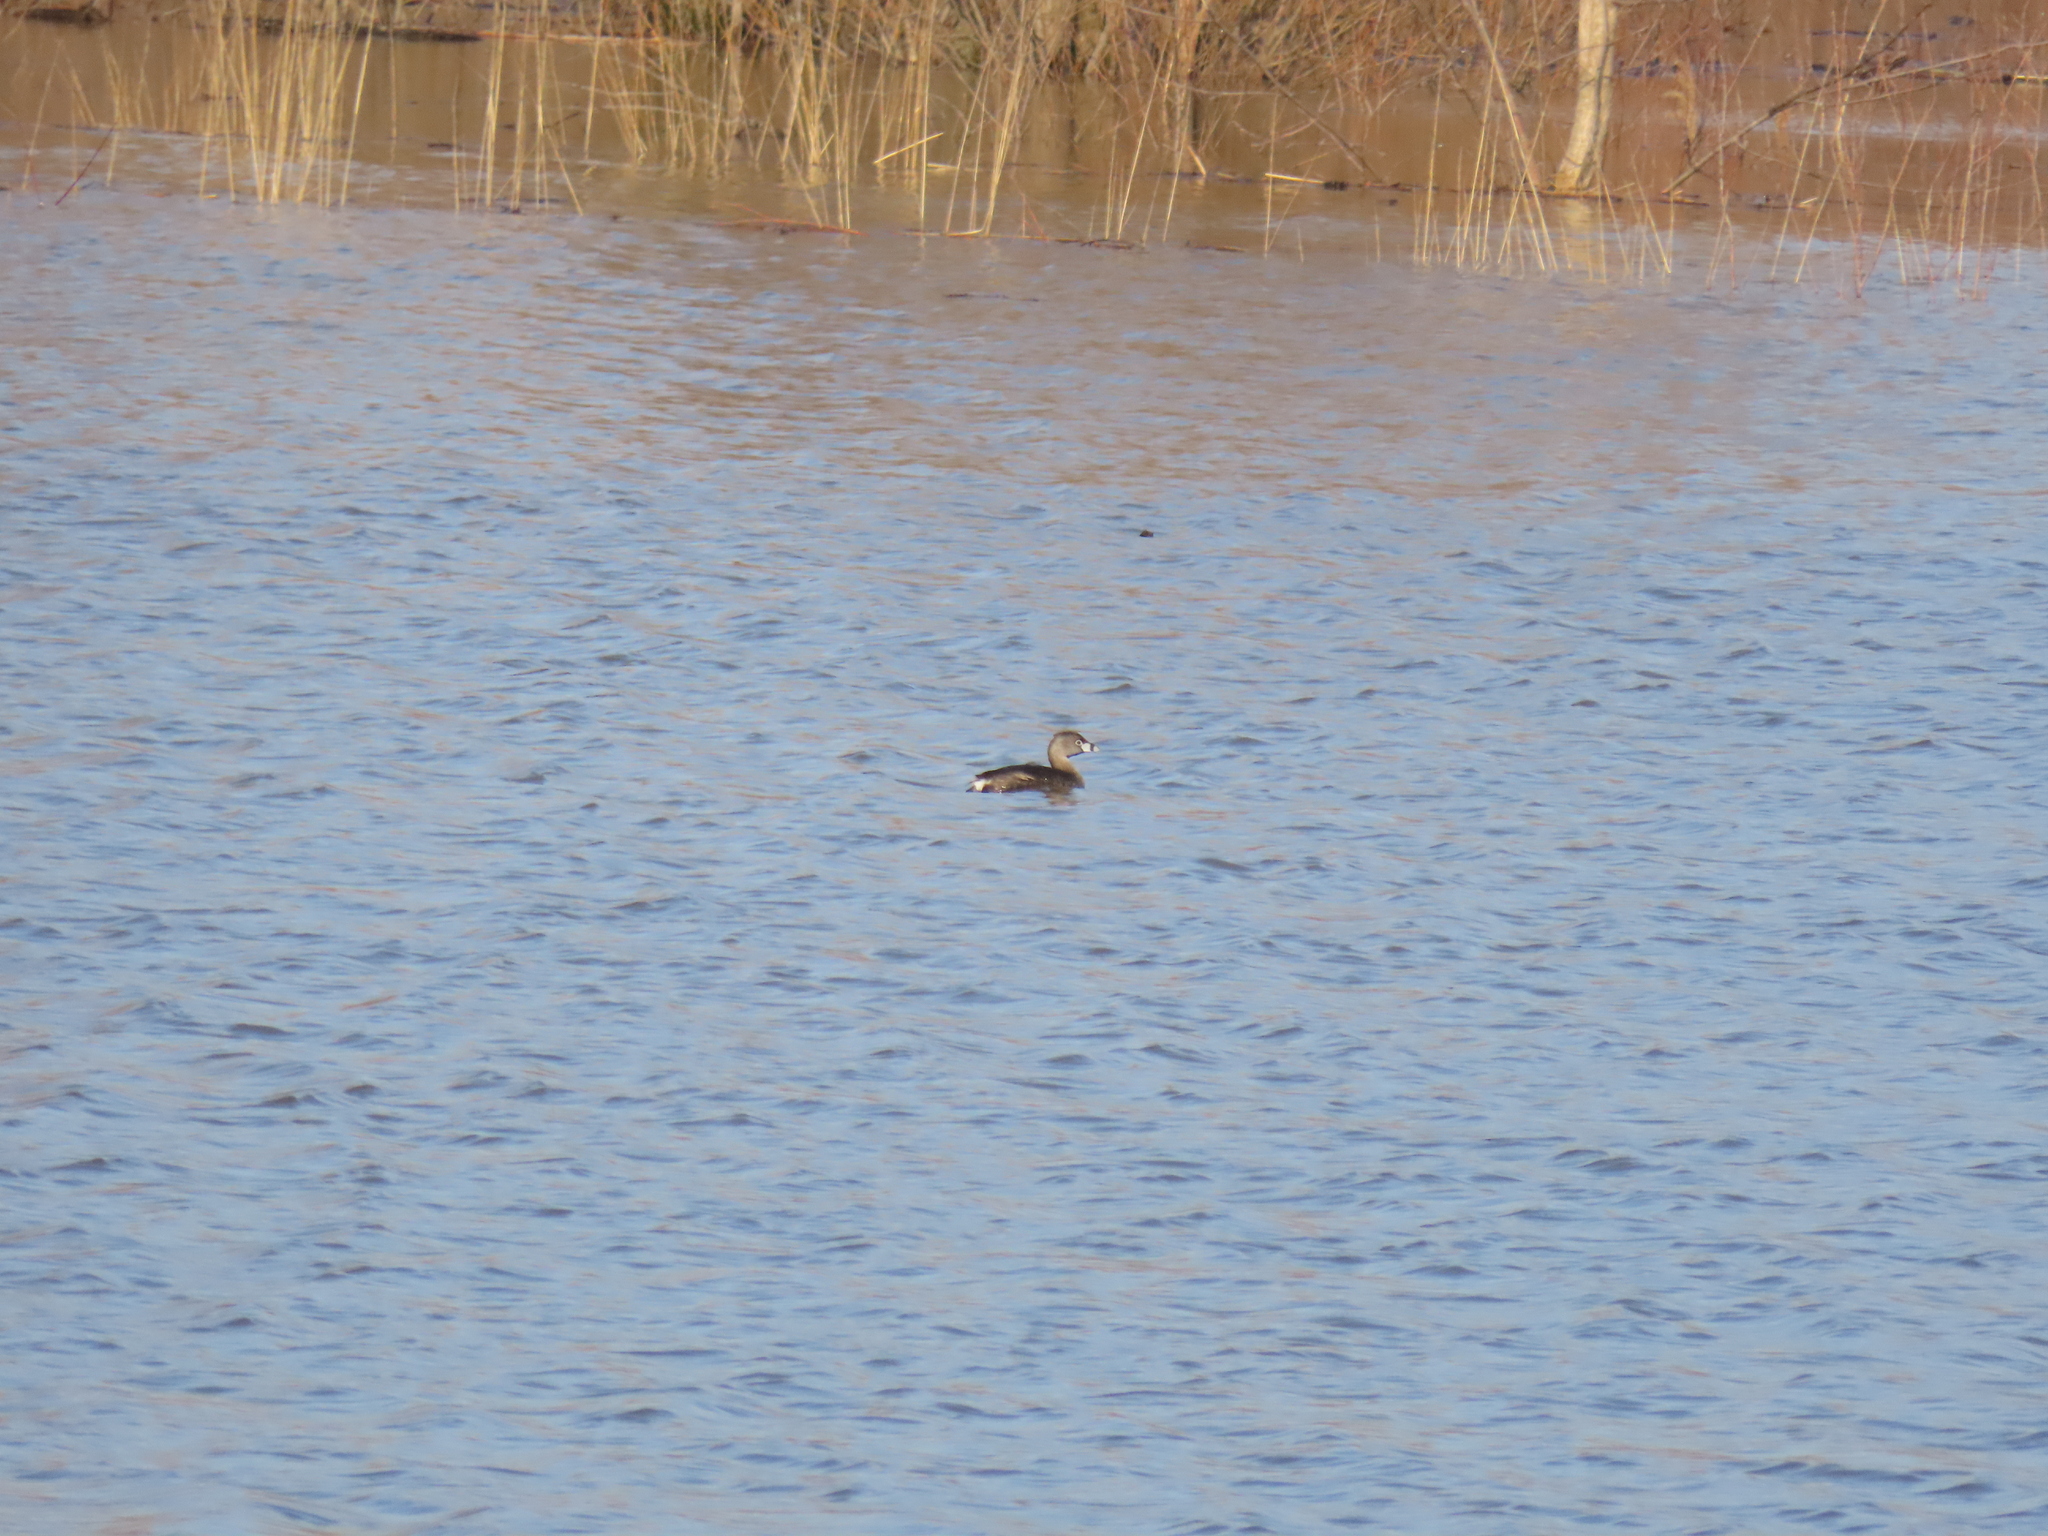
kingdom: Animalia
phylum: Chordata
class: Aves
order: Podicipediformes
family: Podicipedidae
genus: Podilymbus
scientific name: Podilymbus podiceps
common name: Pied-billed grebe
